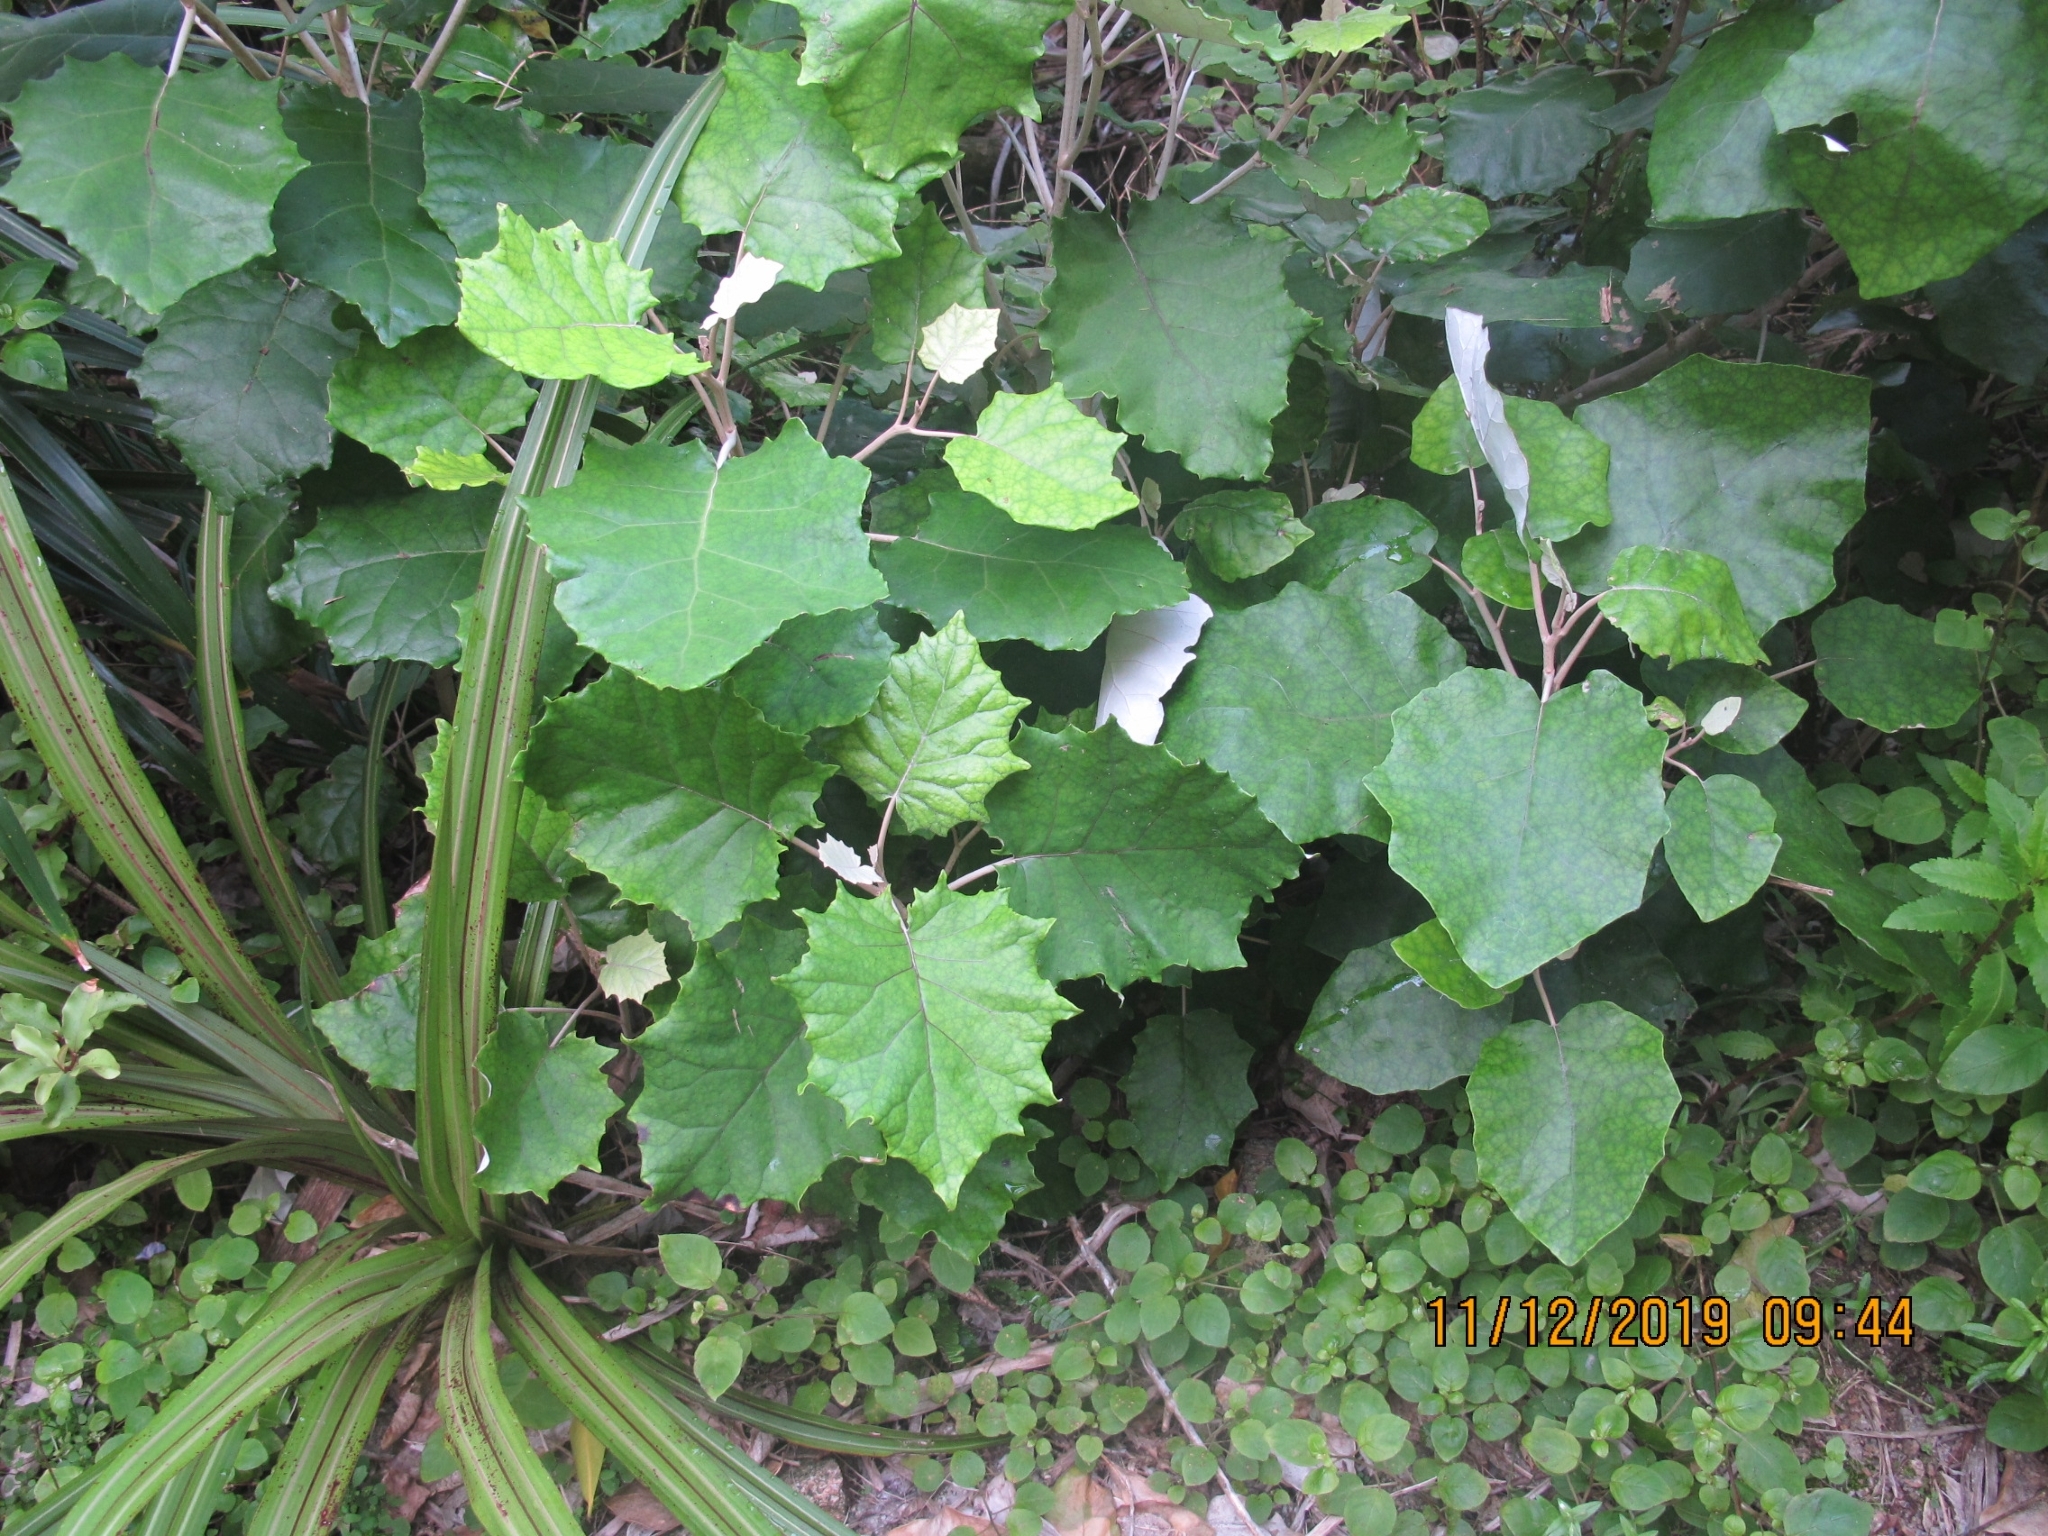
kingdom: Plantae
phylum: Tracheophyta
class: Magnoliopsida
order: Asterales
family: Asteraceae
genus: Brachyglottis
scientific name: Brachyglottis repanda
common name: Hedge ragwort
